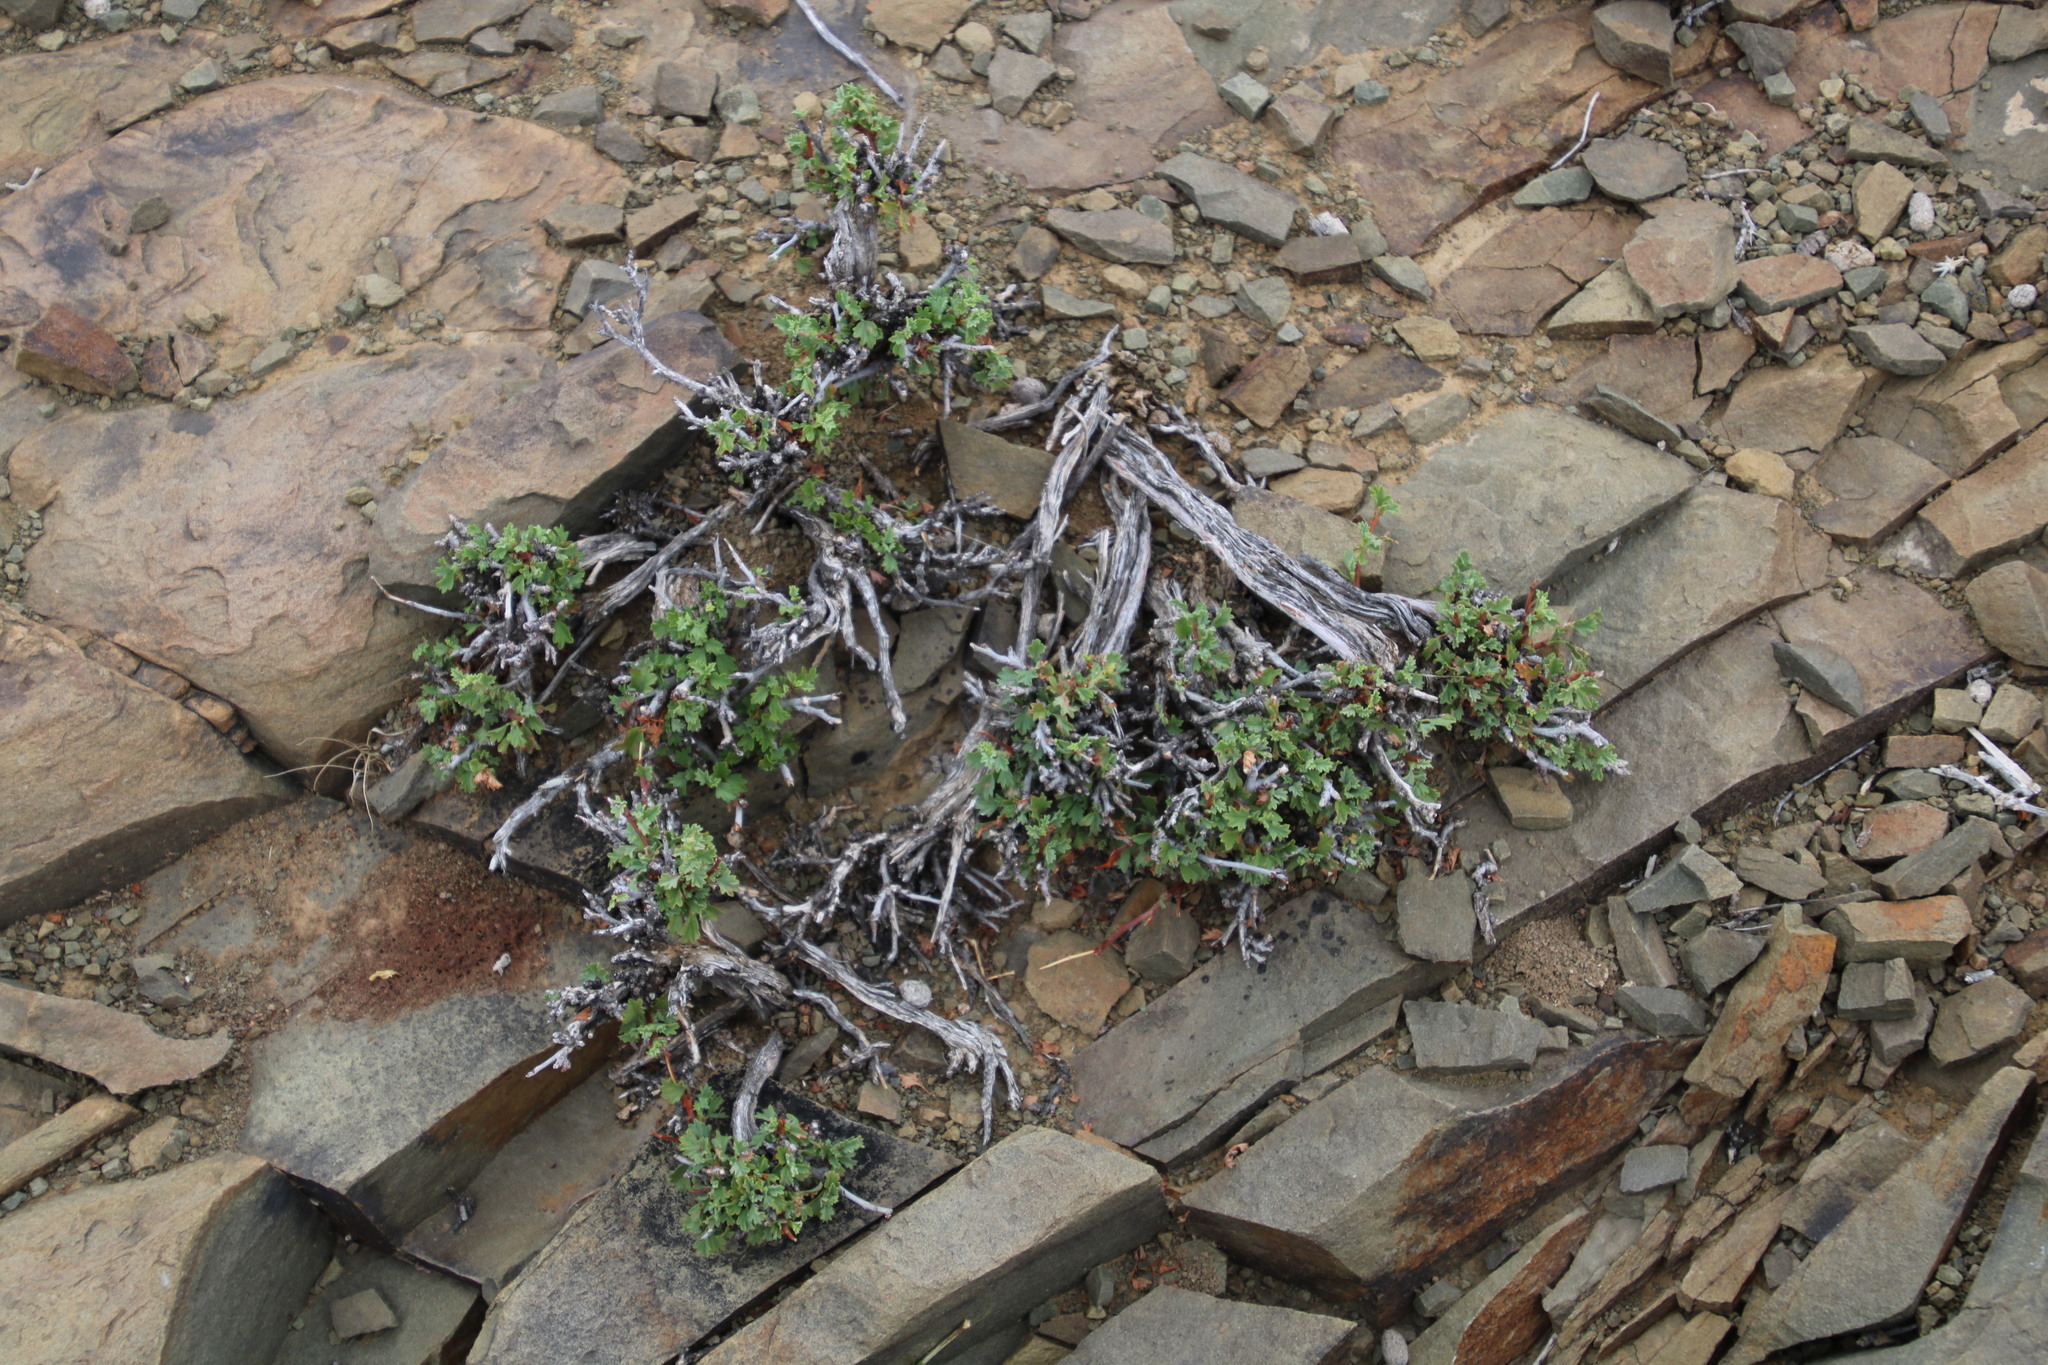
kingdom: Plantae
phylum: Tracheophyta
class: Magnoliopsida
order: Malvales
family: Malvaceae
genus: Hermannia
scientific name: Hermannia spinosa
